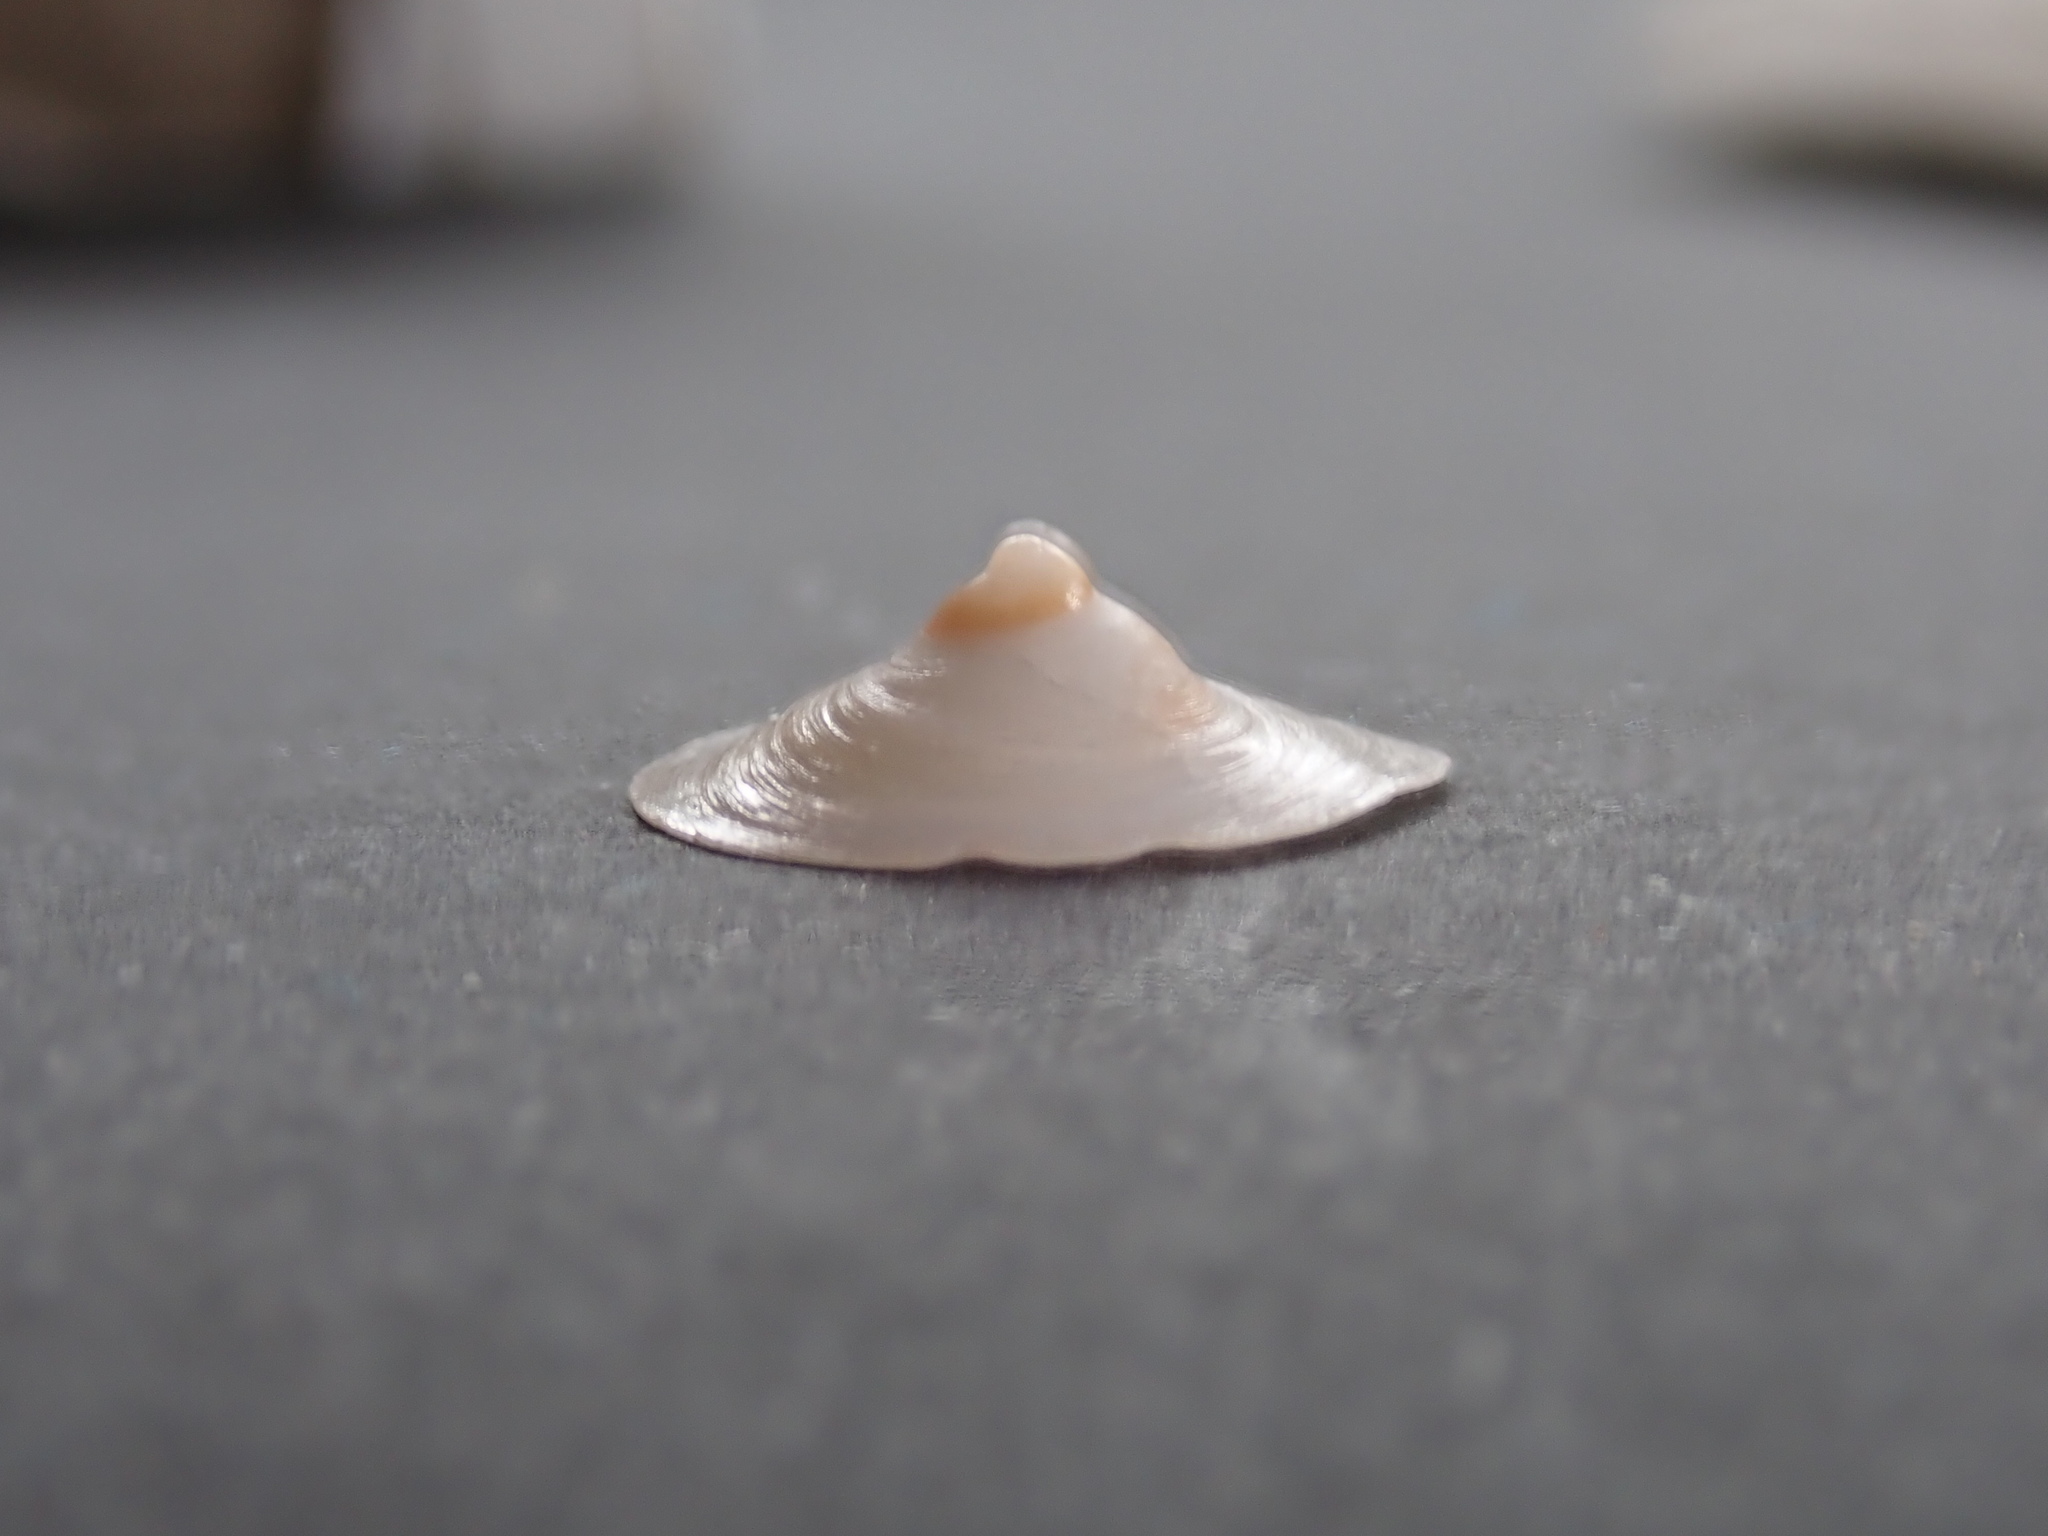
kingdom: Animalia
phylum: Mollusca
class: Gastropoda
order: Littorinimorpha
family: Calyptraeidae
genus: Sigapatella
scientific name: Sigapatella hedleyi
